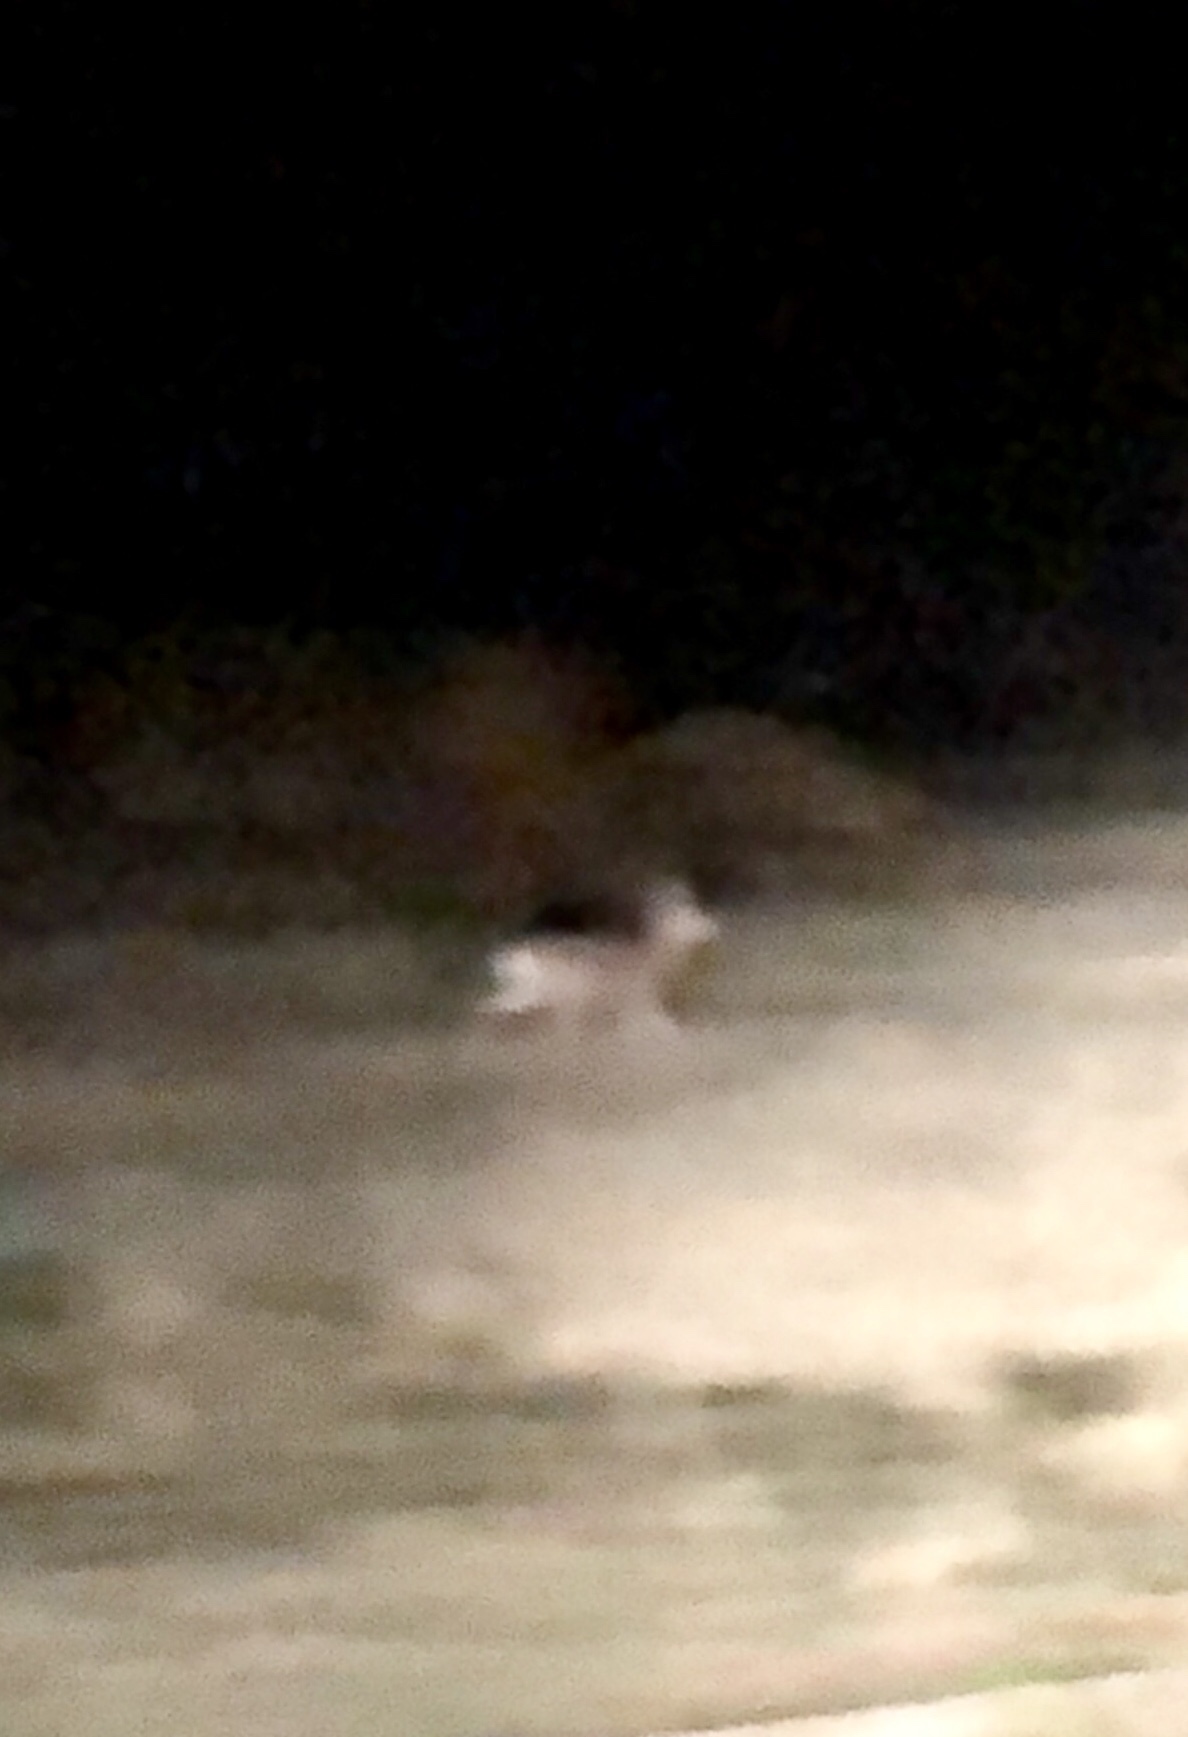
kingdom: Animalia
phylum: Chordata
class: Mammalia
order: Artiodactyla
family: Cervidae
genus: Odocoileus
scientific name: Odocoileus hemionus
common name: Mule deer
